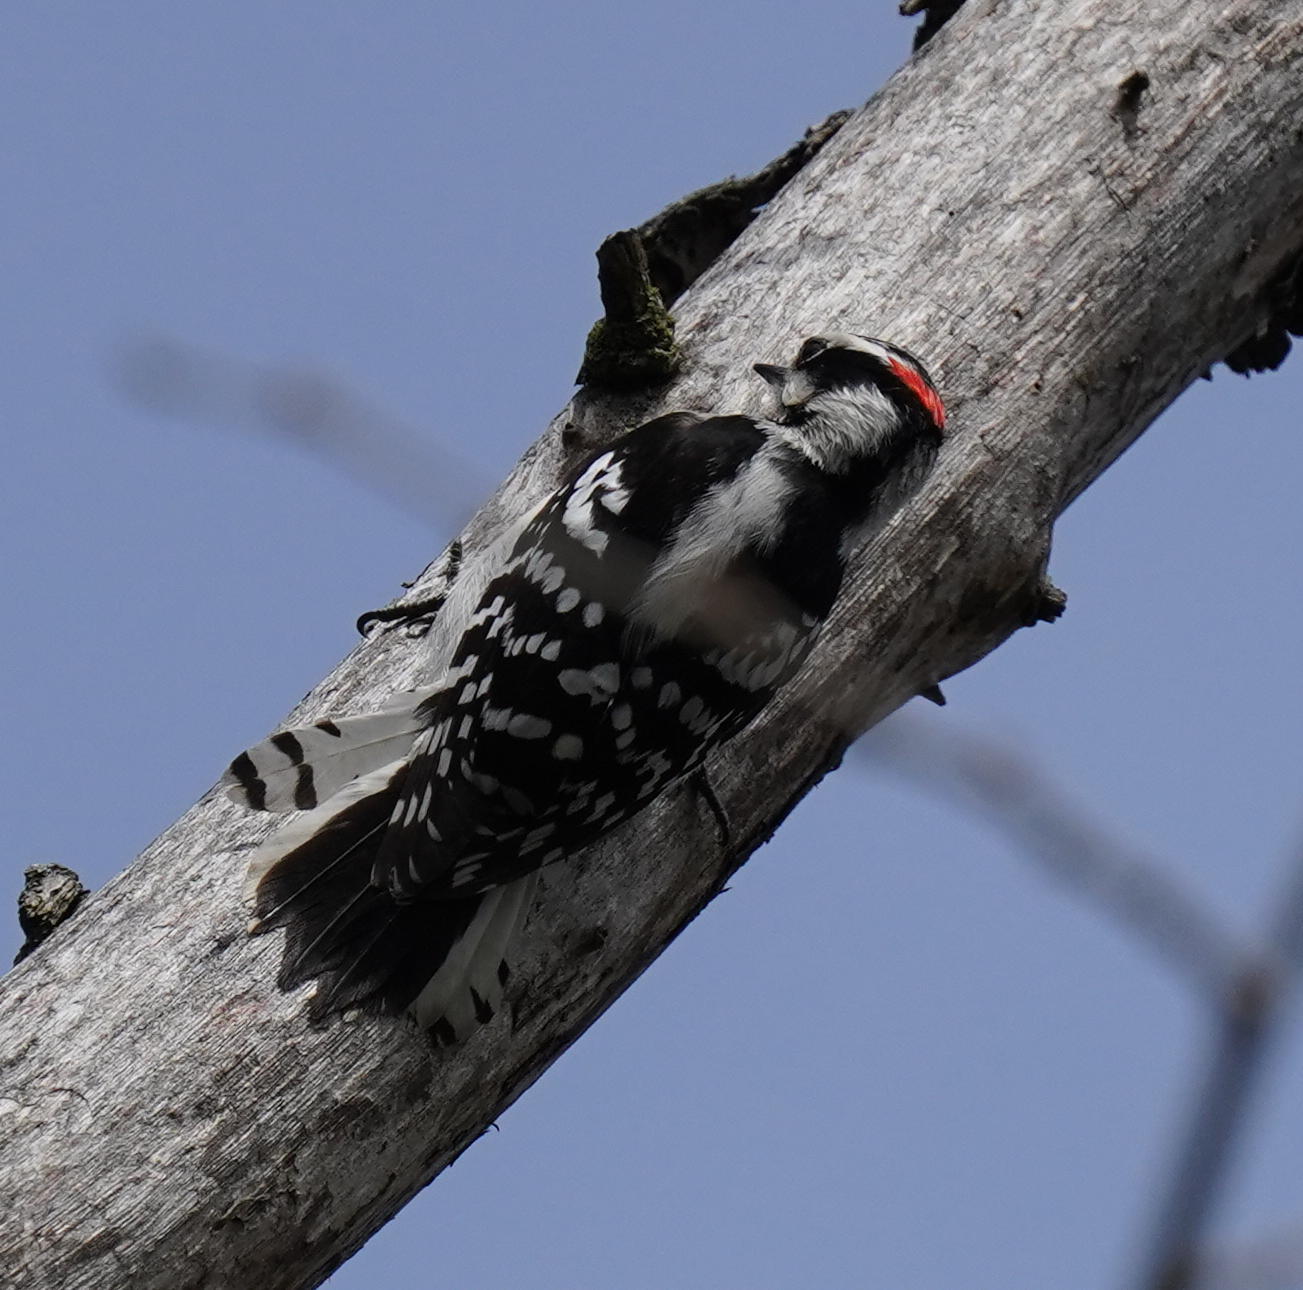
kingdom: Animalia
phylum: Chordata
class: Aves
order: Piciformes
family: Picidae
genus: Dryobates
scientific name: Dryobates pubescens
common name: Downy woodpecker
